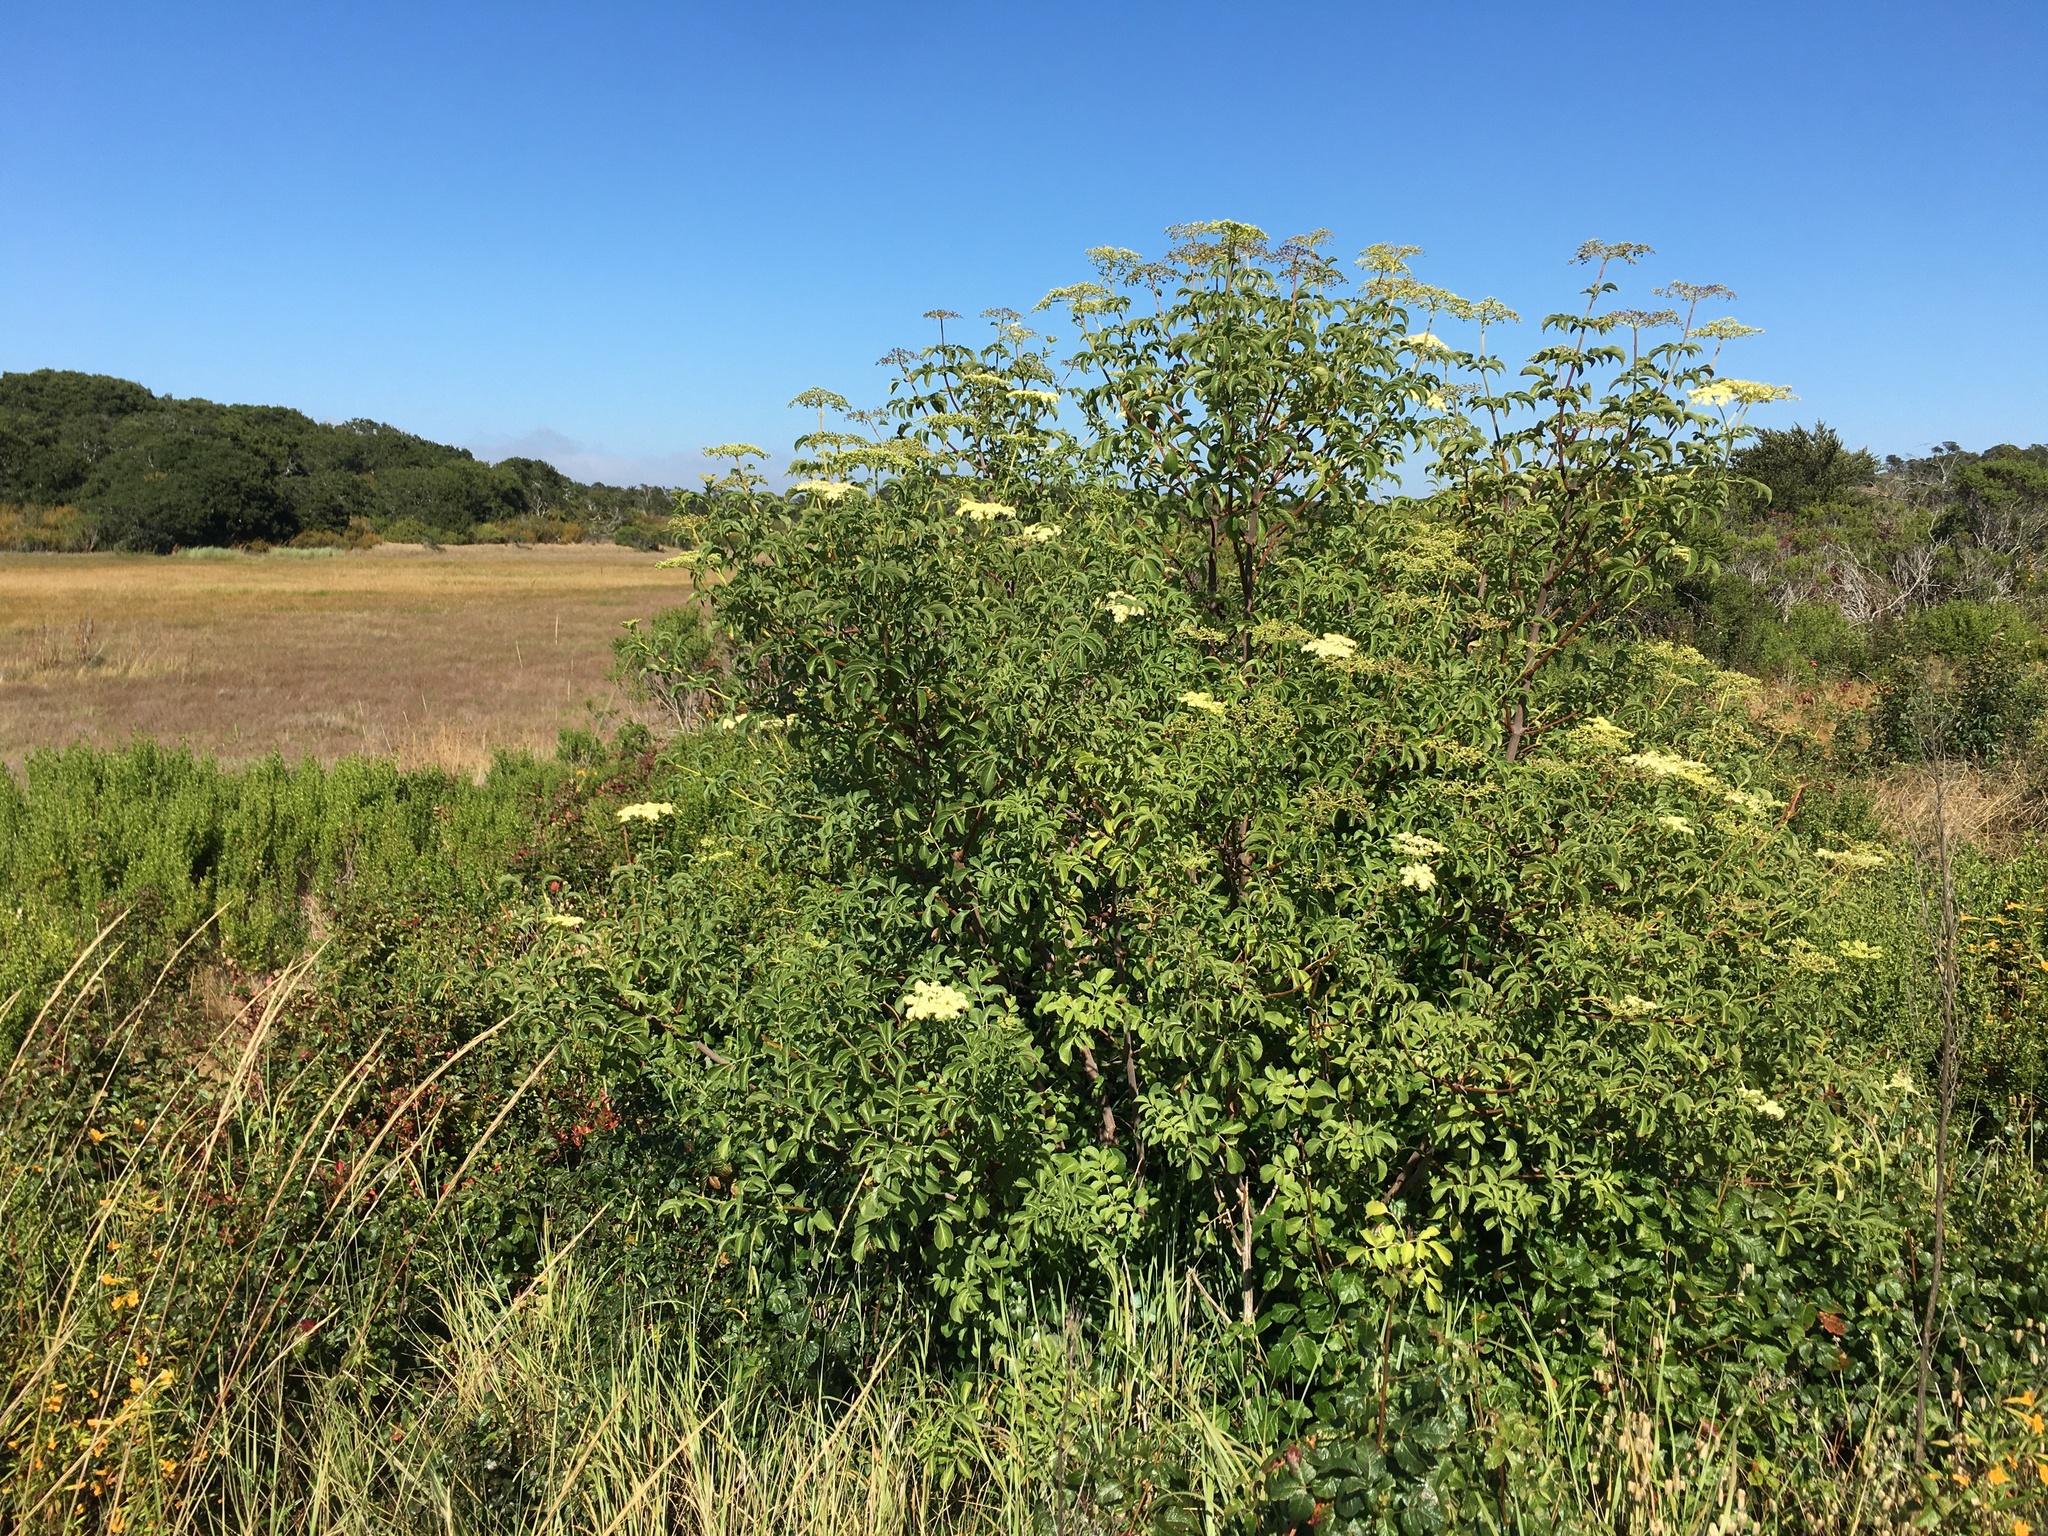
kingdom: Plantae
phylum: Tracheophyta
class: Magnoliopsida
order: Dipsacales
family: Viburnaceae
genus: Sambucus
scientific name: Sambucus cerulea
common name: Blue elder
